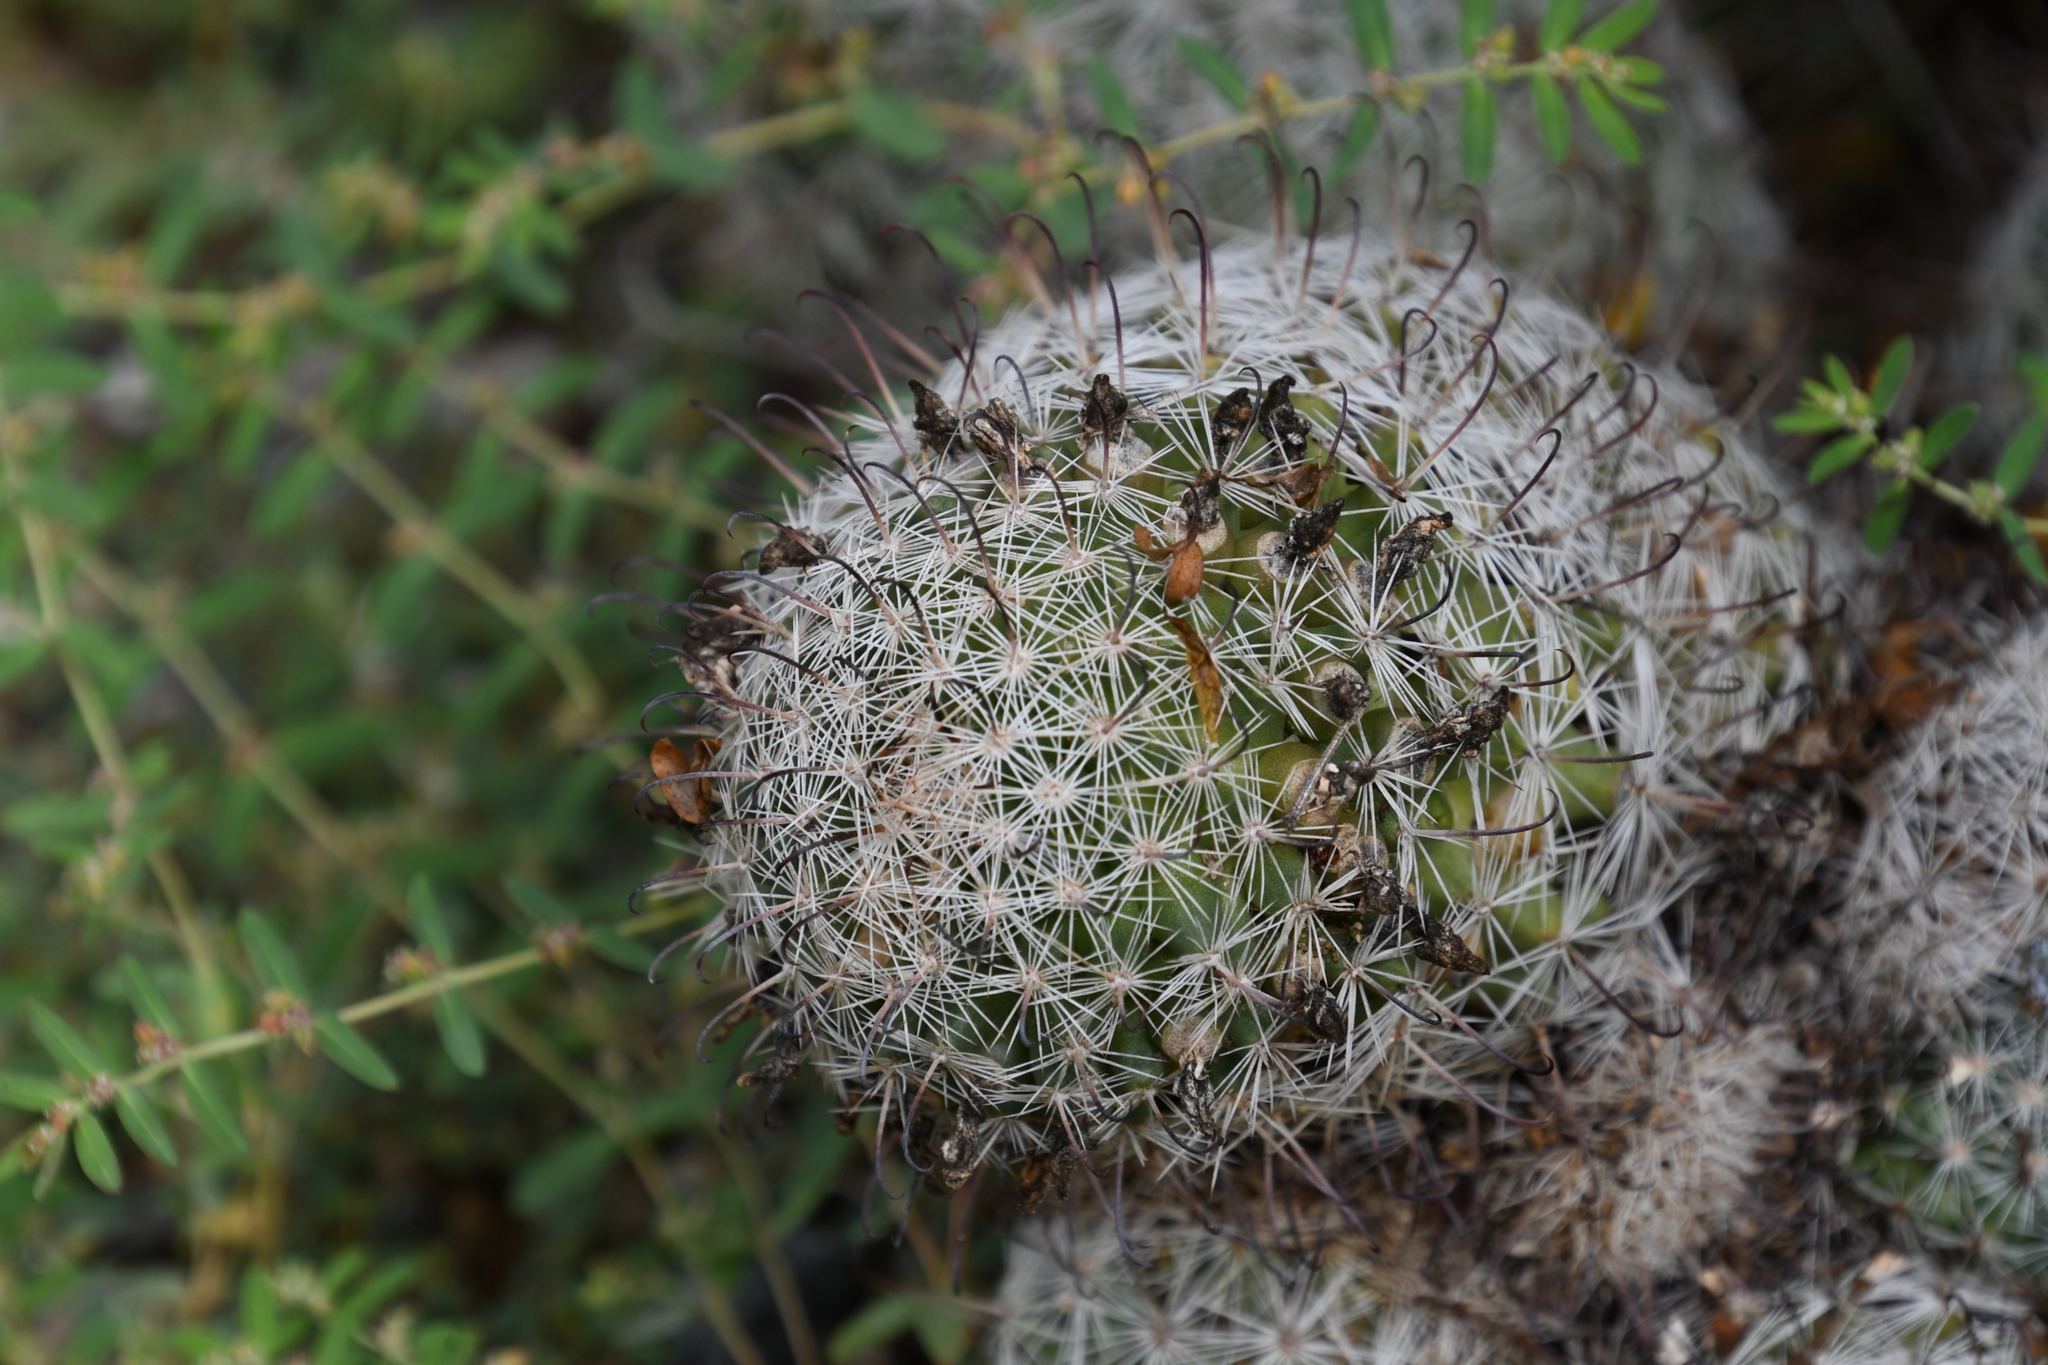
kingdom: Plantae
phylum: Tracheophyta
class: Magnoliopsida
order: Caryophyllales
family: Cactaceae
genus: Cochemiea
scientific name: Cochemiea grahamii
